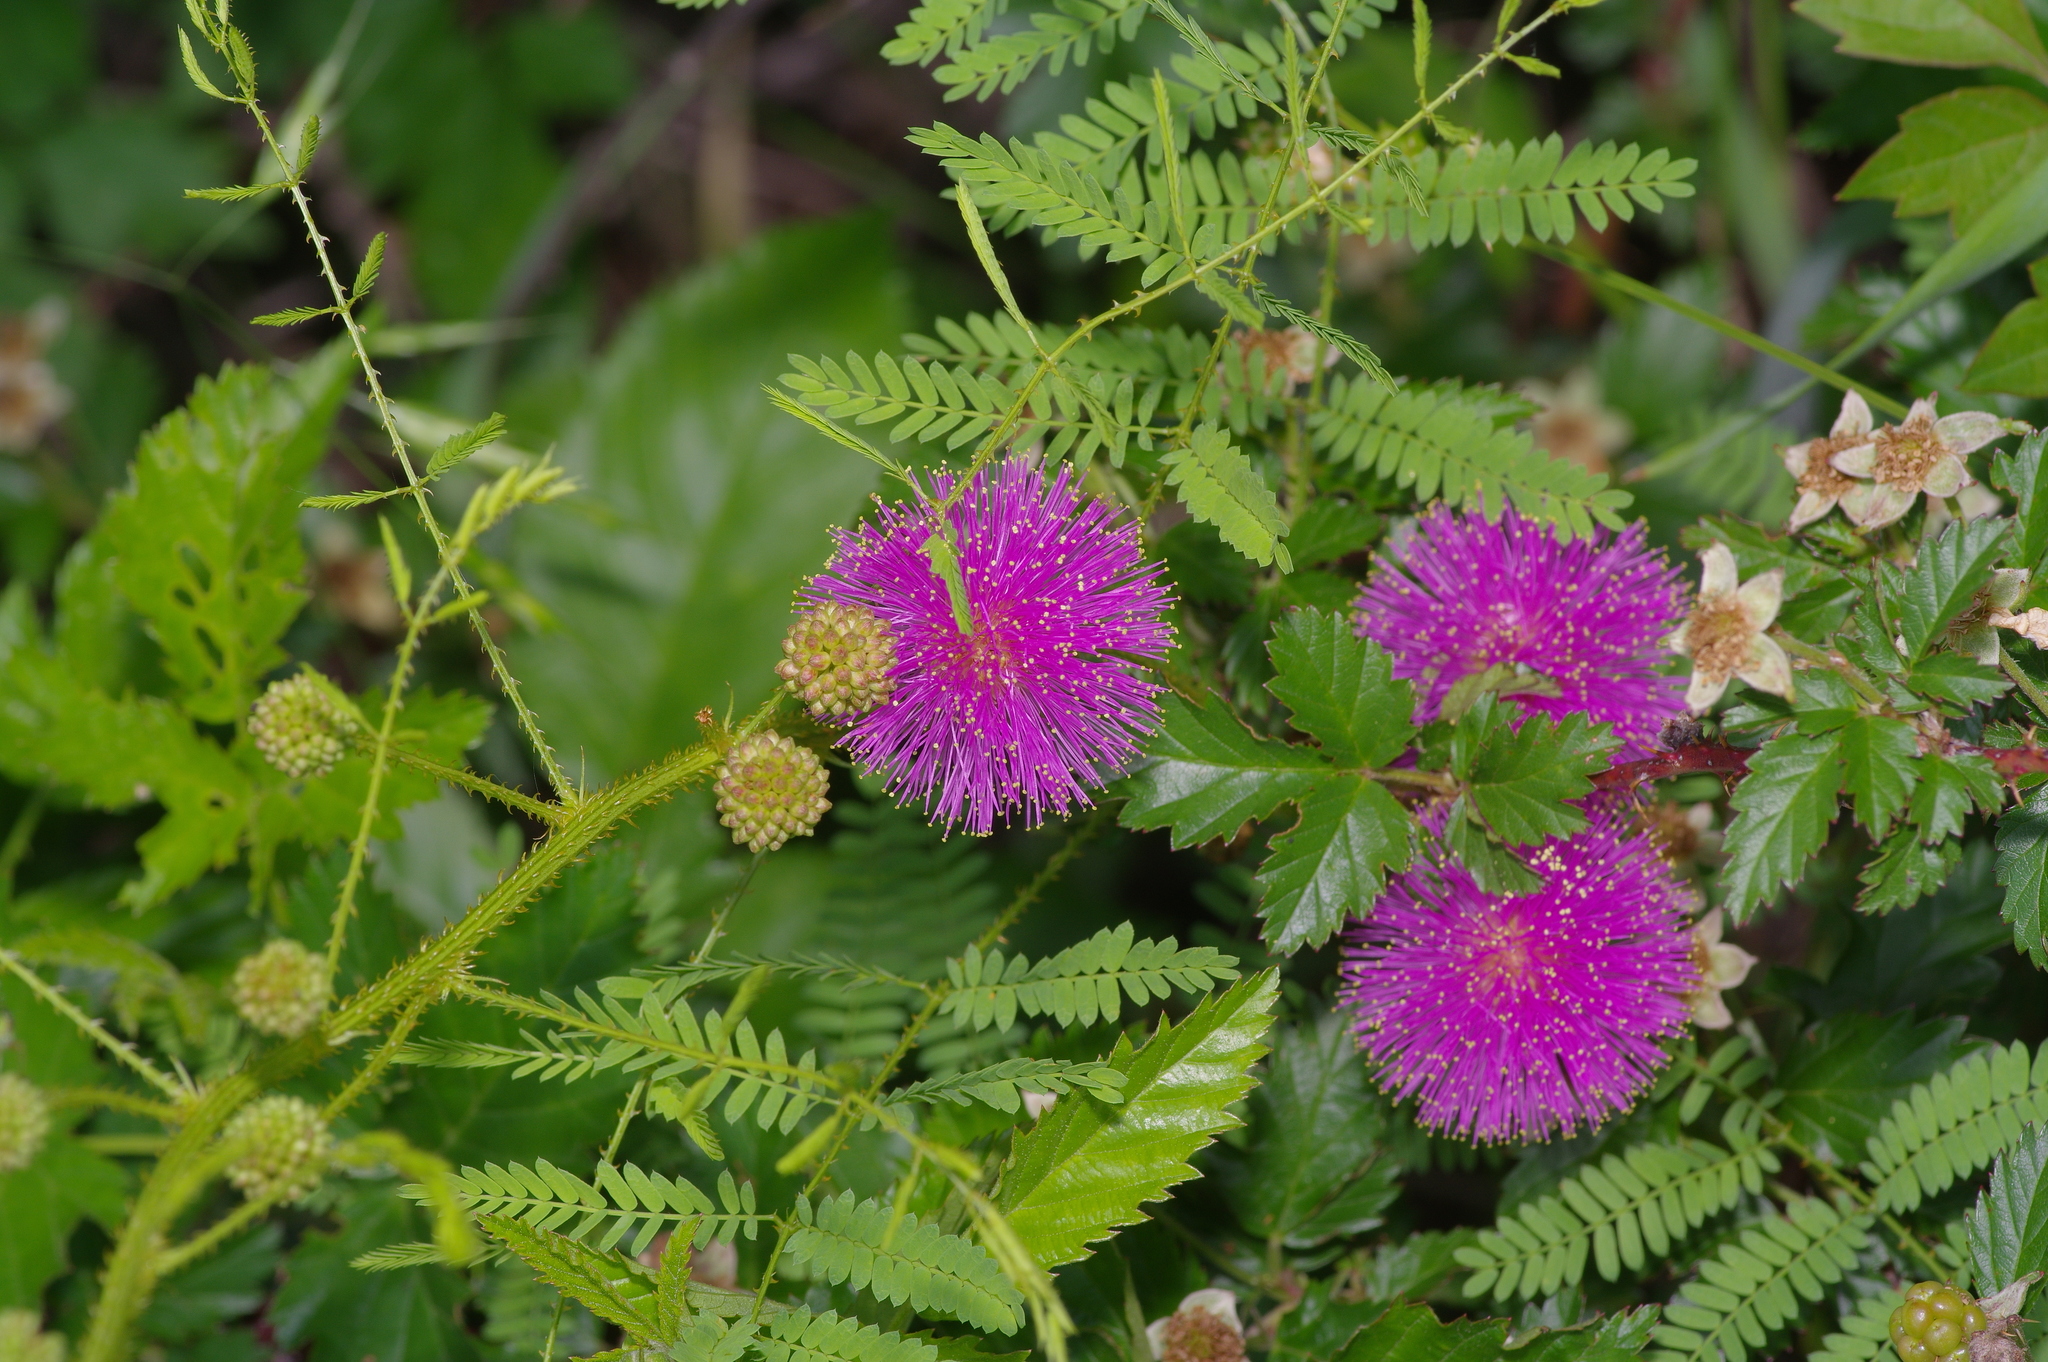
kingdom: Plantae
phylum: Tracheophyta
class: Magnoliopsida
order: Fabales
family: Fabaceae
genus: Mimosa
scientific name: Mimosa quadrivalvis
